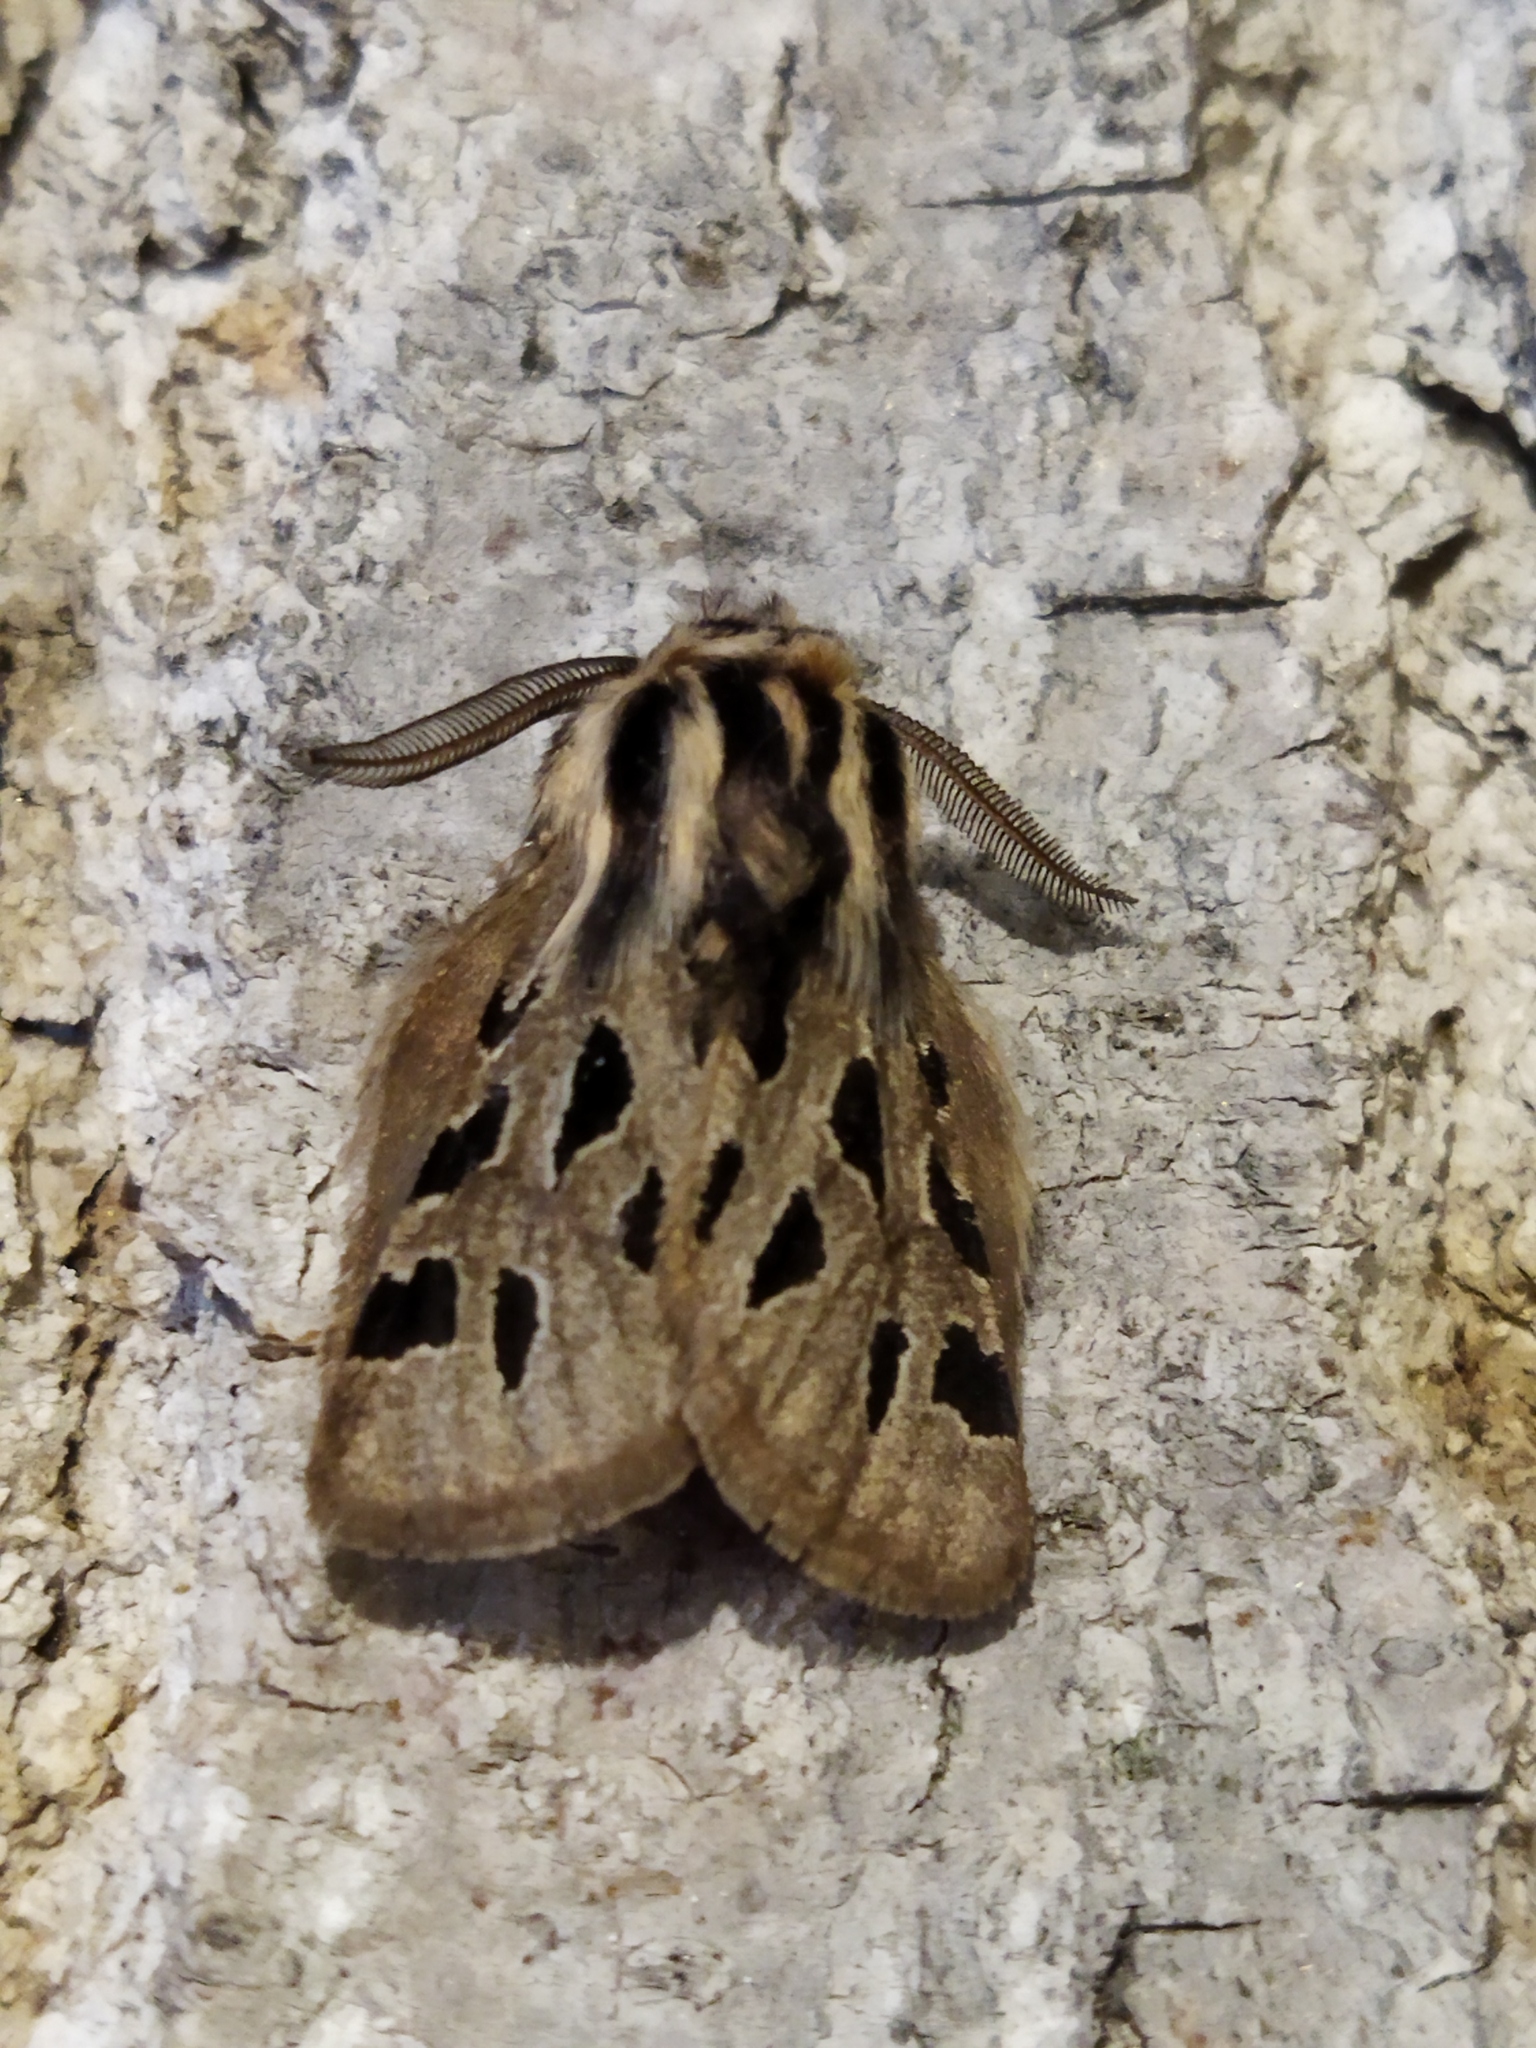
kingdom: Animalia
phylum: Arthropoda
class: Insecta
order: Lepidoptera
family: Erebidae
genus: Ocnogyna
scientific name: Ocnogyna parasita
